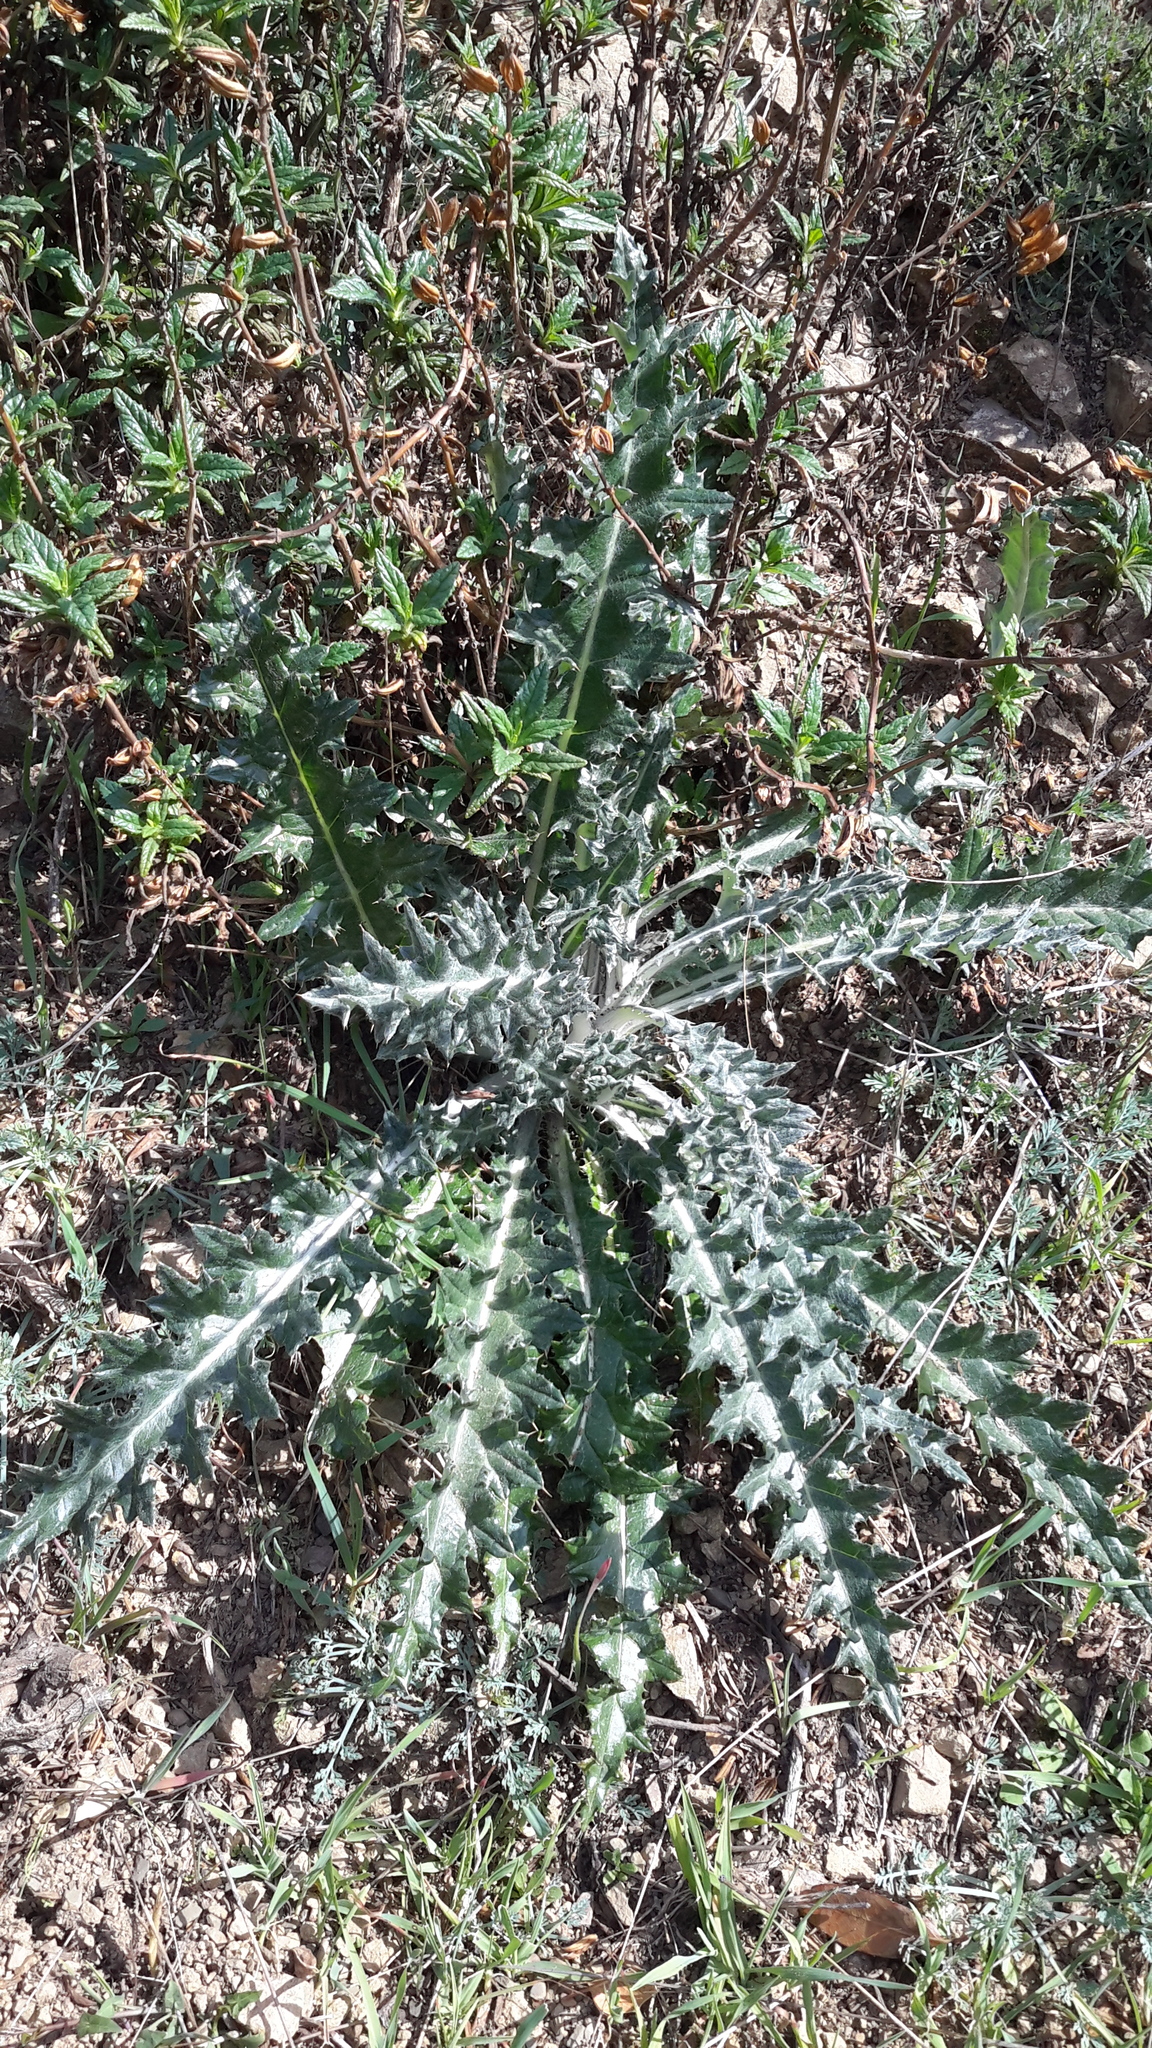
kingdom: Plantae
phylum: Tracheophyta
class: Magnoliopsida
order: Asterales
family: Asteraceae
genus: Cirsium
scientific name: Cirsium occidentale
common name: Western thistle
